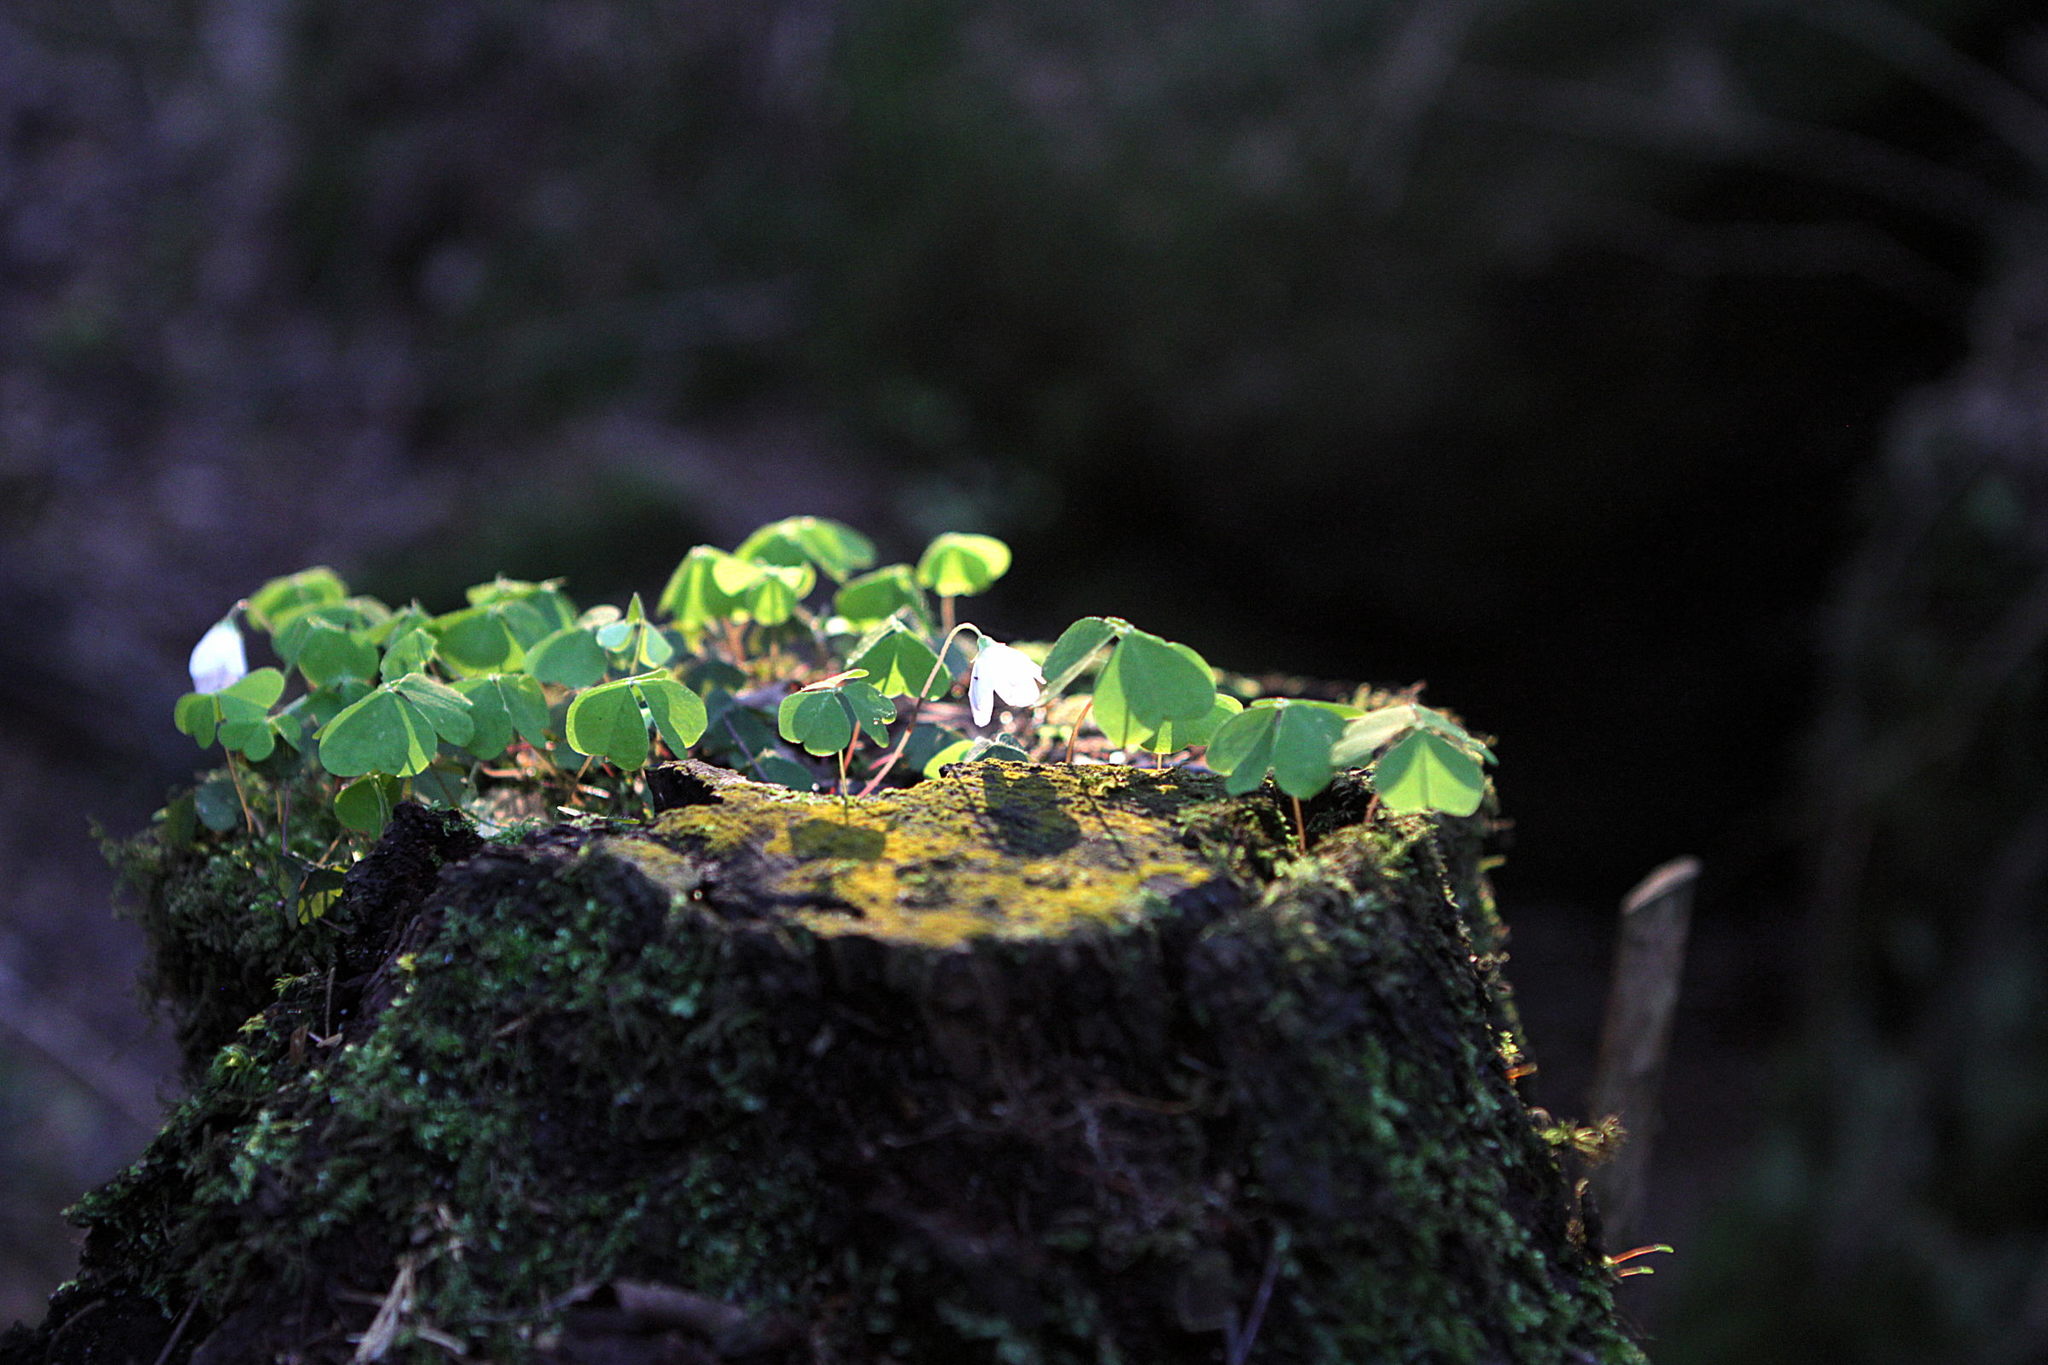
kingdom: Plantae
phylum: Tracheophyta
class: Magnoliopsida
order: Oxalidales
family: Oxalidaceae
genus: Oxalis
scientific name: Oxalis acetosella
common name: Wood-sorrel
